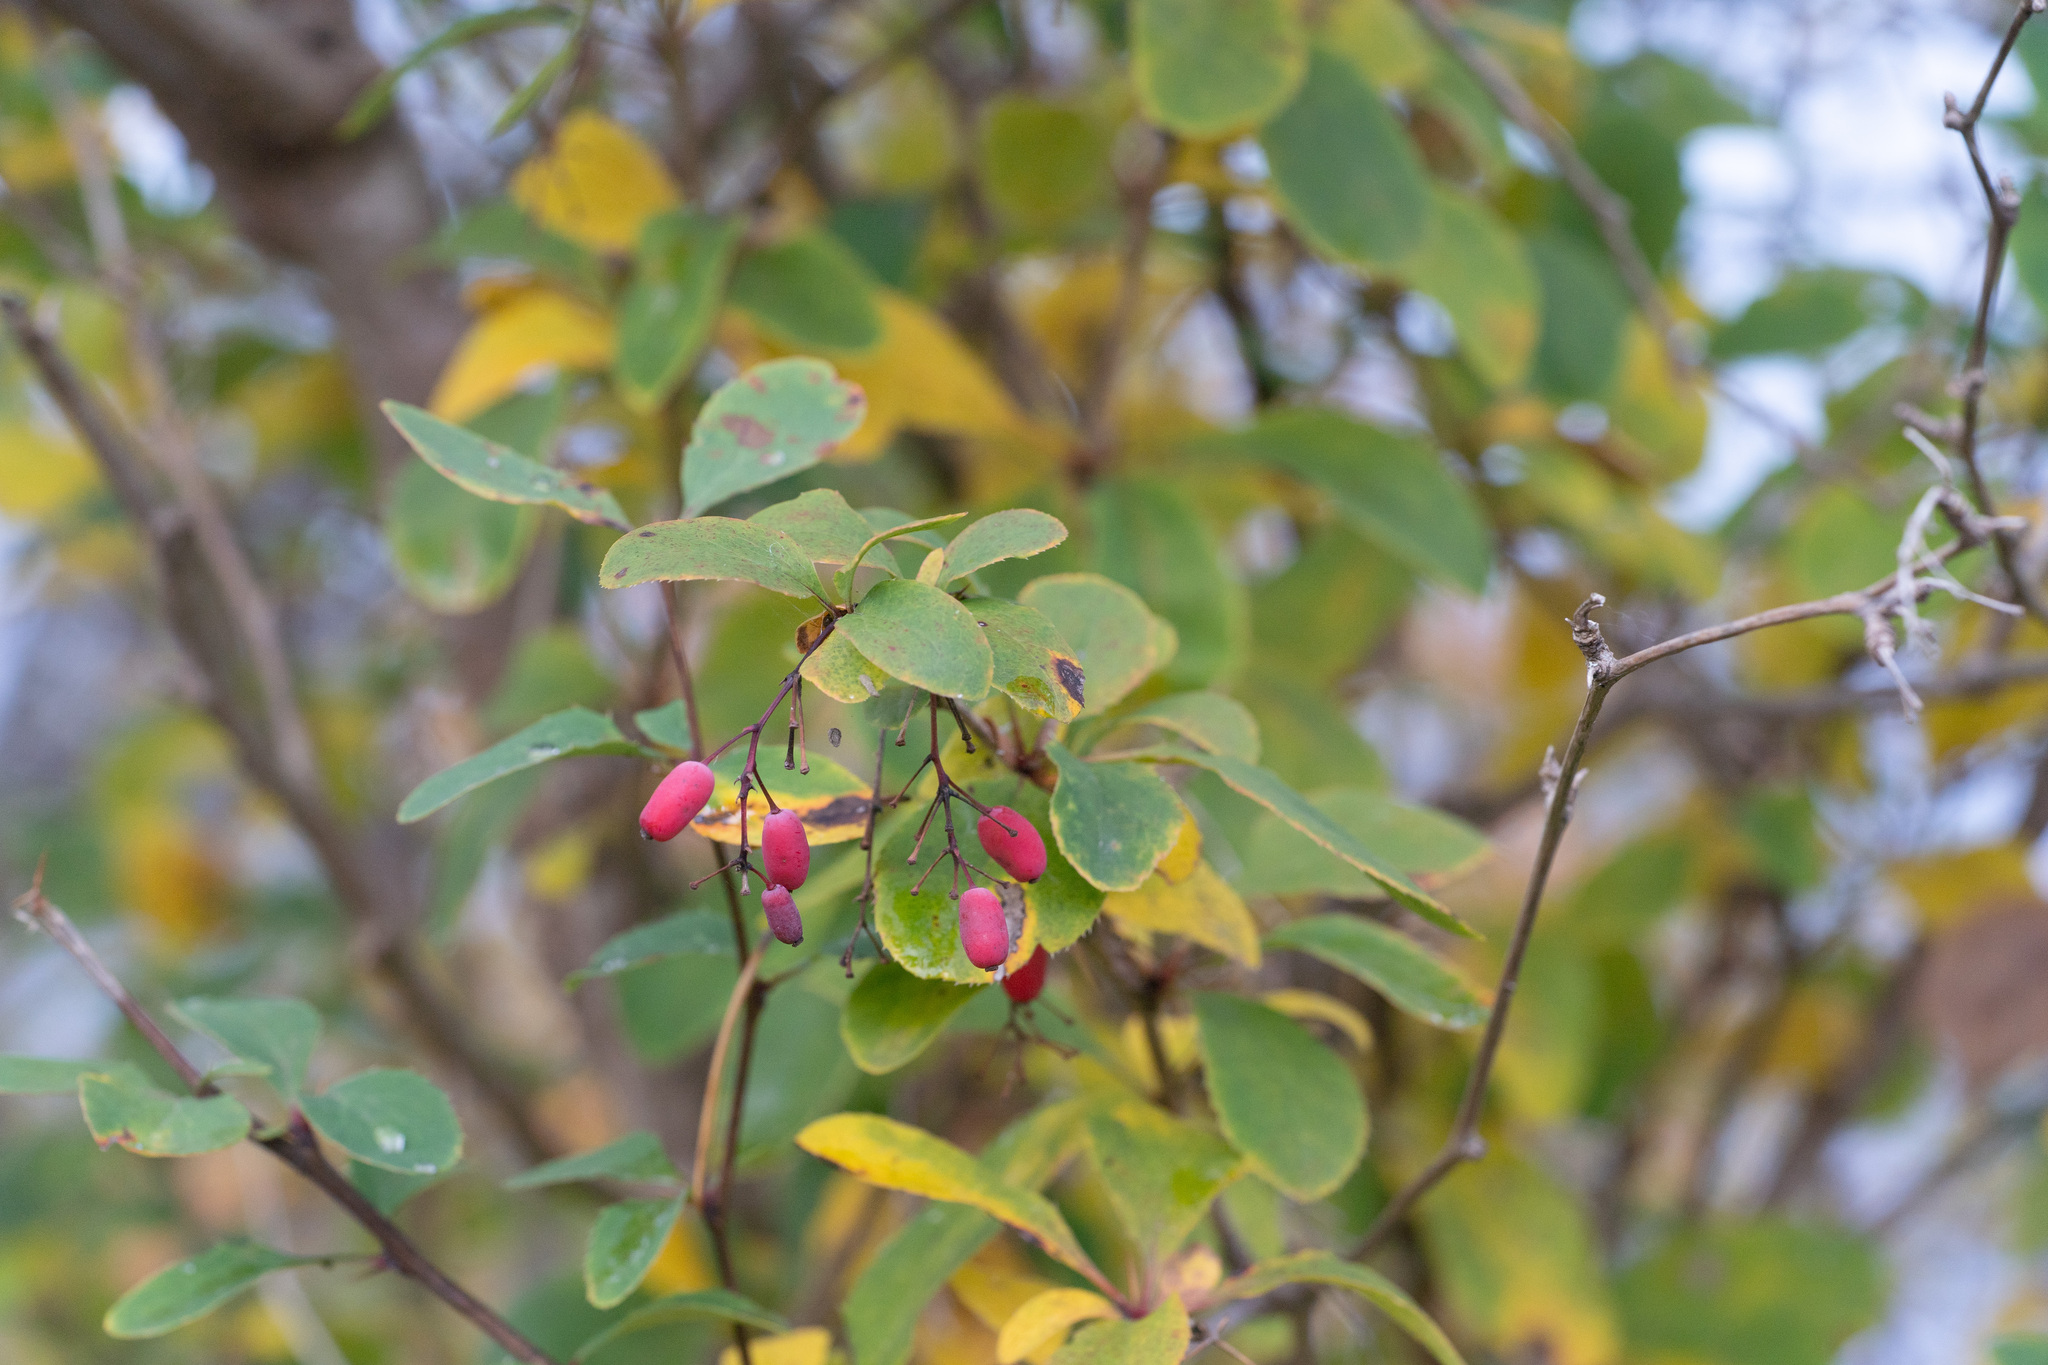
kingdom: Plantae
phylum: Tracheophyta
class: Magnoliopsida
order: Ranunculales
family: Berberidaceae
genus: Berberis
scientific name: Berberis vulgaris
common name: Barberry
